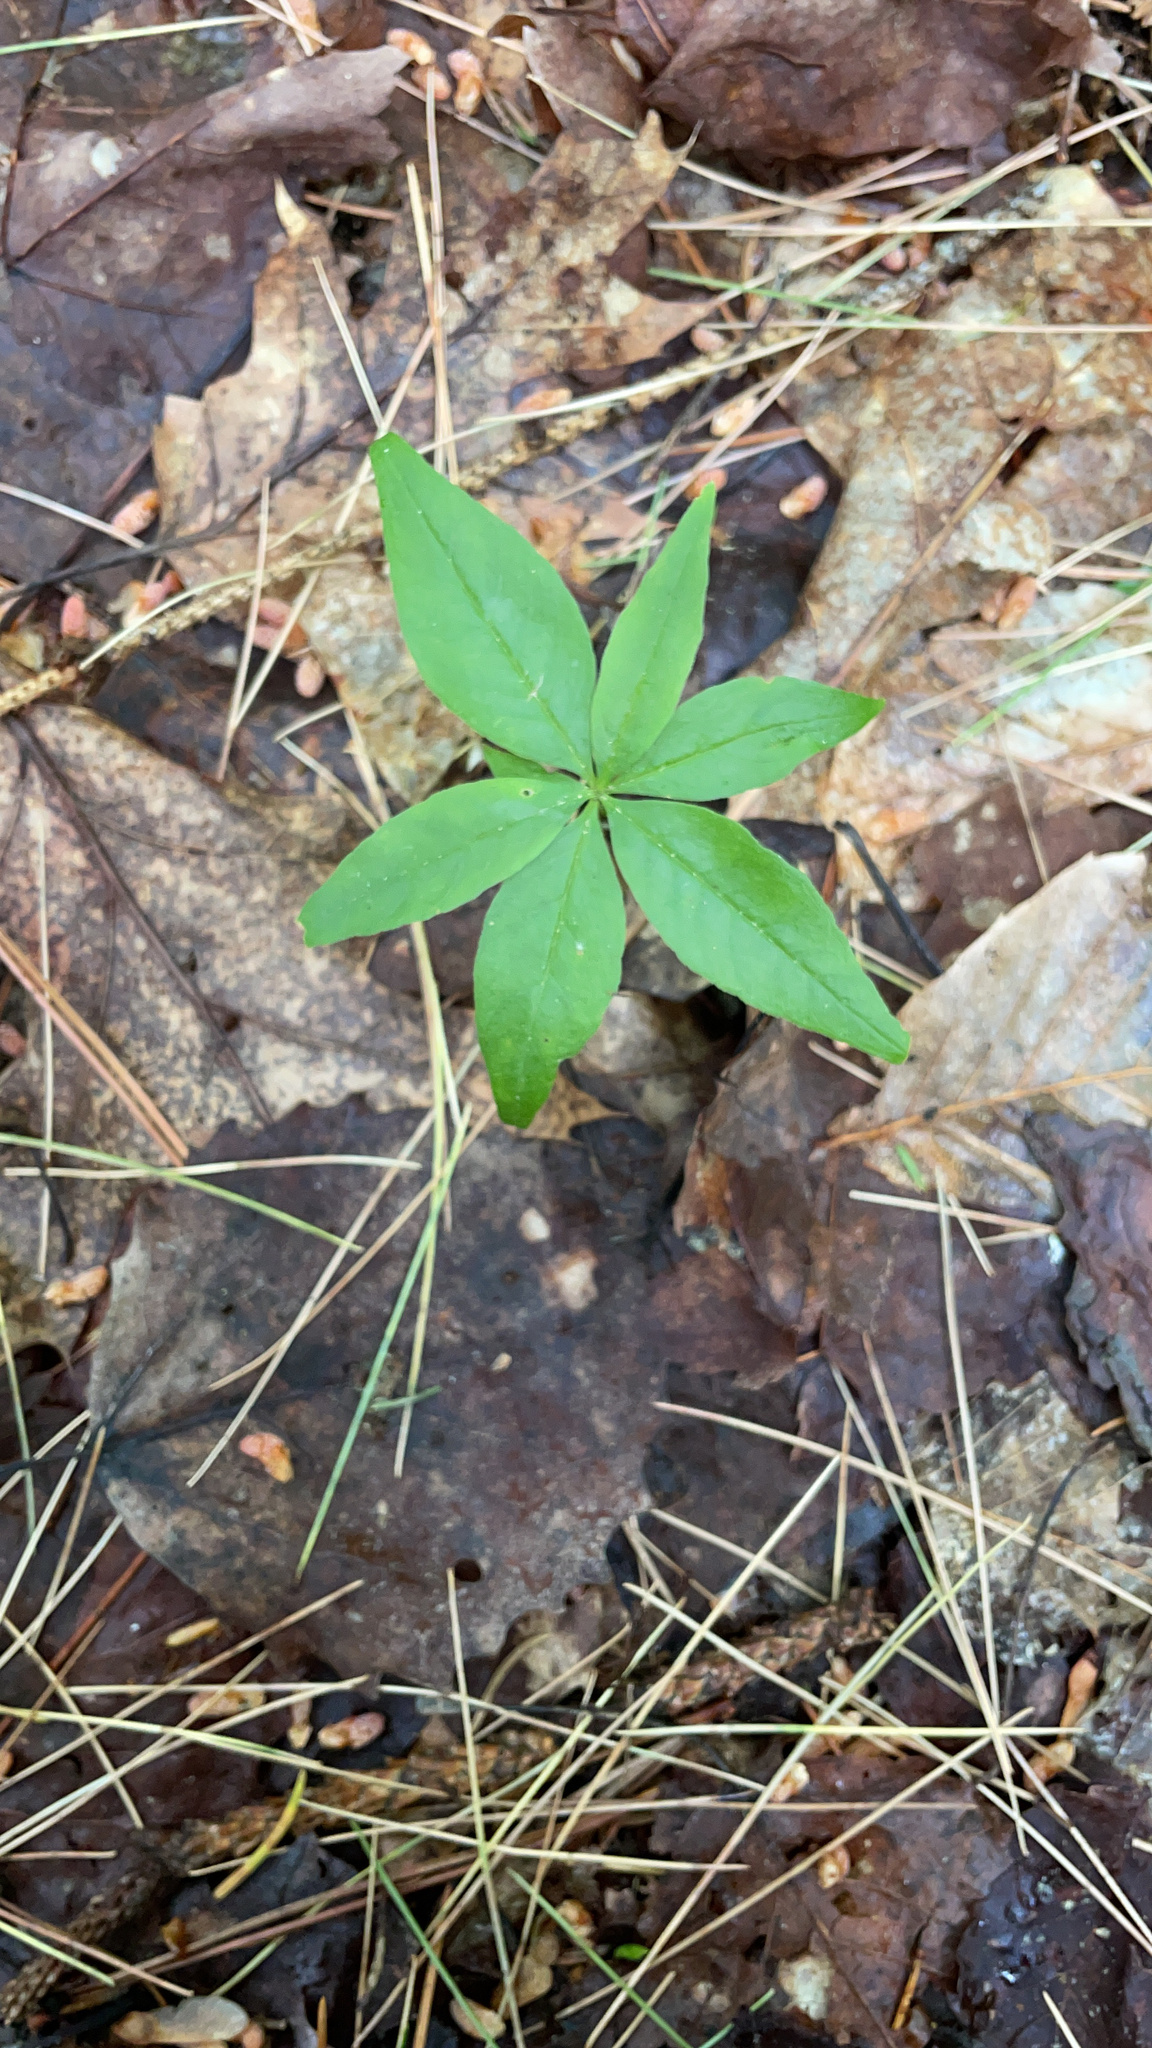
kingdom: Plantae
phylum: Tracheophyta
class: Magnoliopsida
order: Ericales
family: Primulaceae
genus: Lysimachia
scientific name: Lysimachia borealis
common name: American starflower
